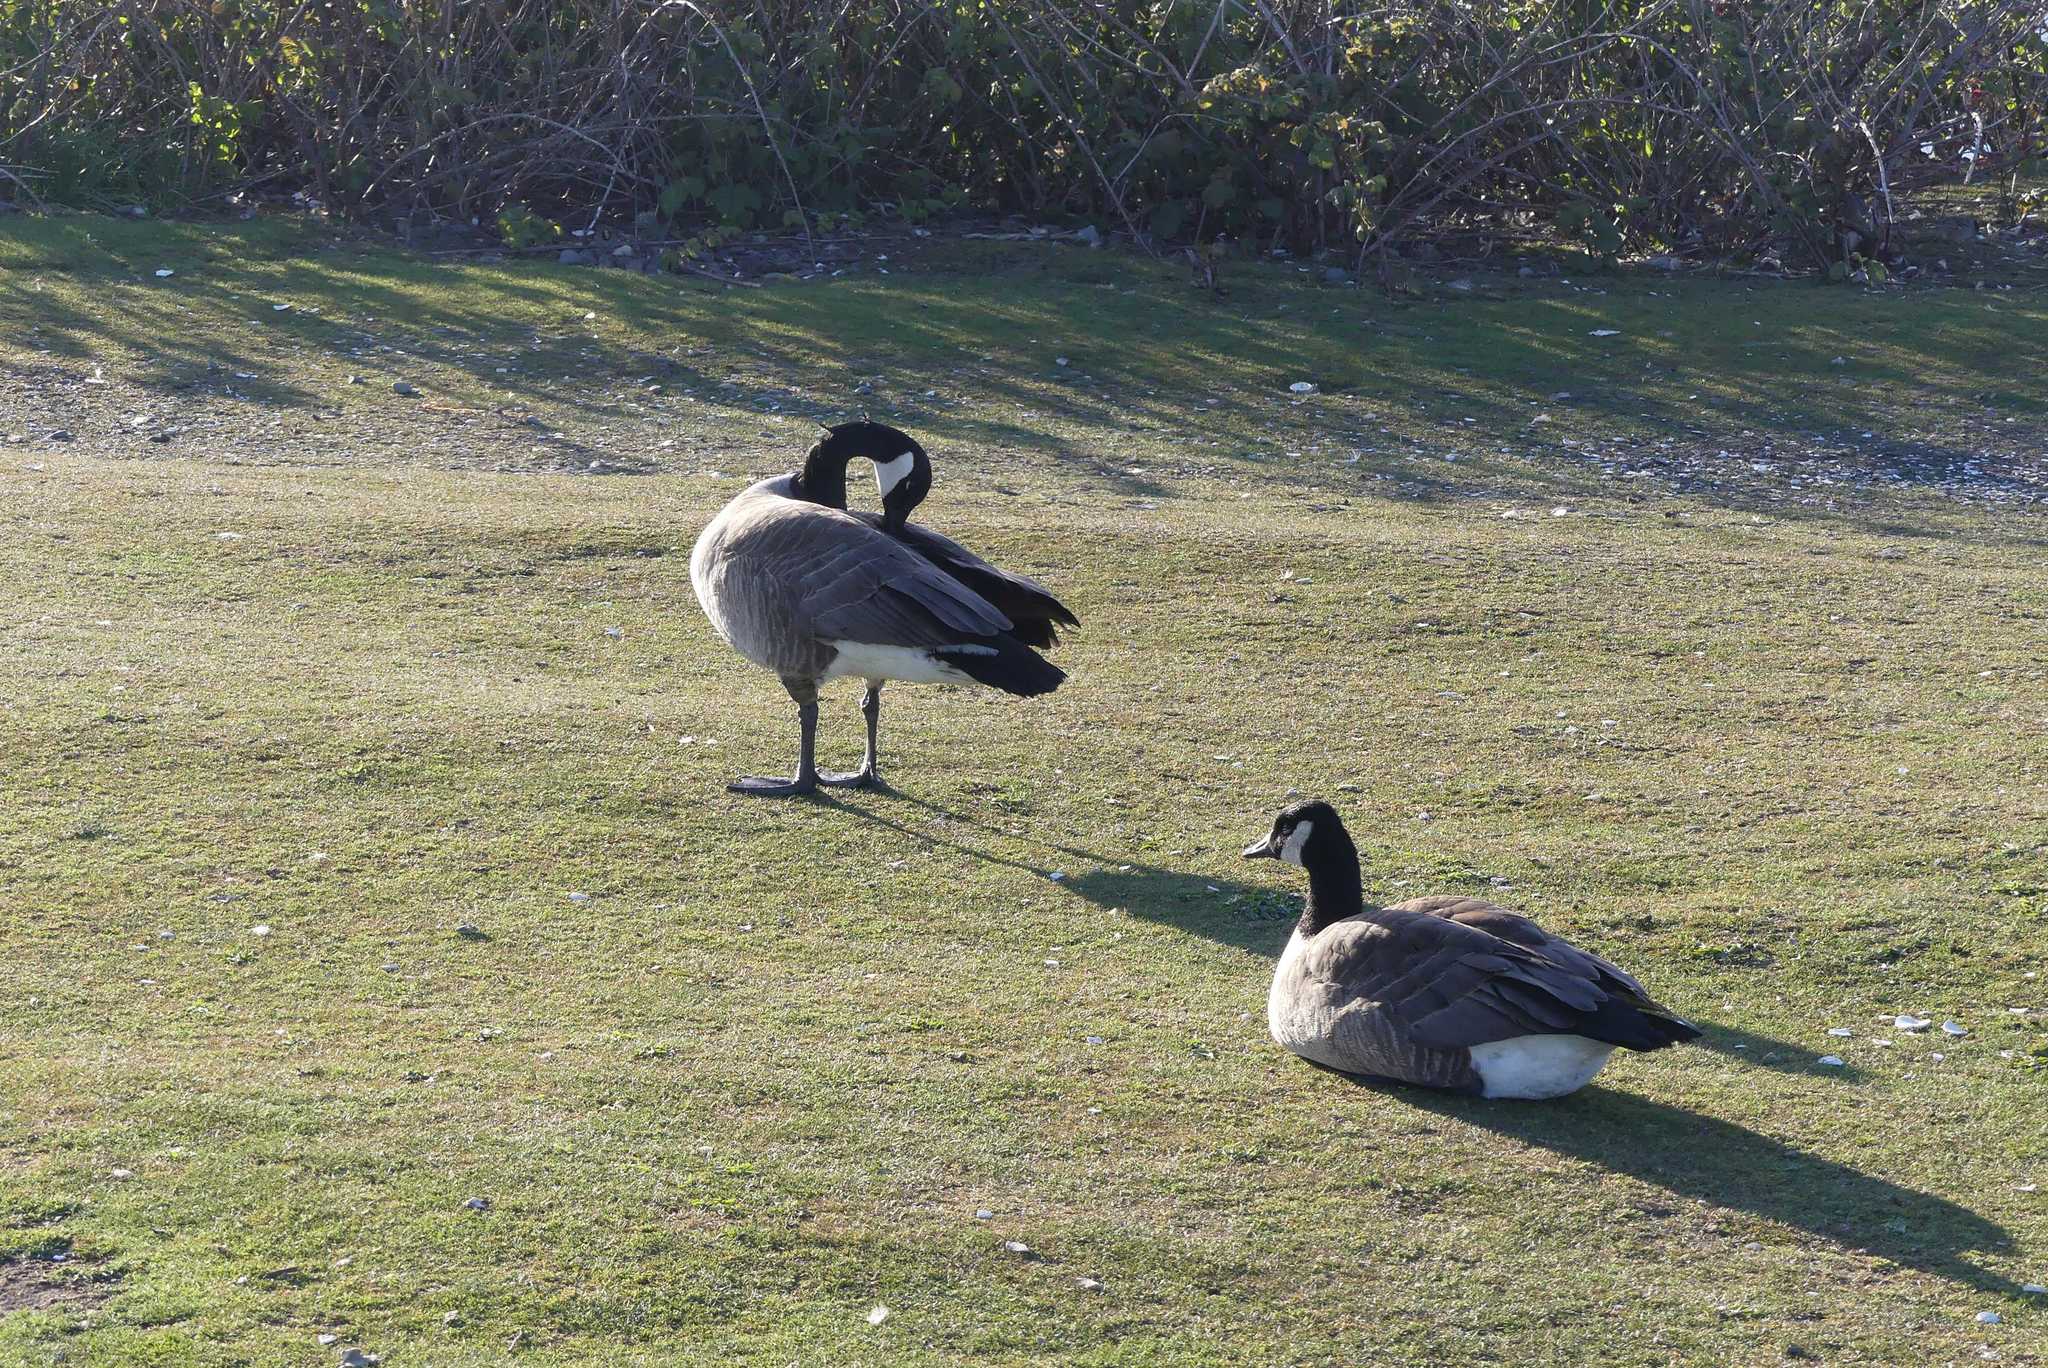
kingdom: Animalia
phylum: Chordata
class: Aves
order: Anseriformes
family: Anatidae
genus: Branta
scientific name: Branta canadensis
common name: Canada goose
